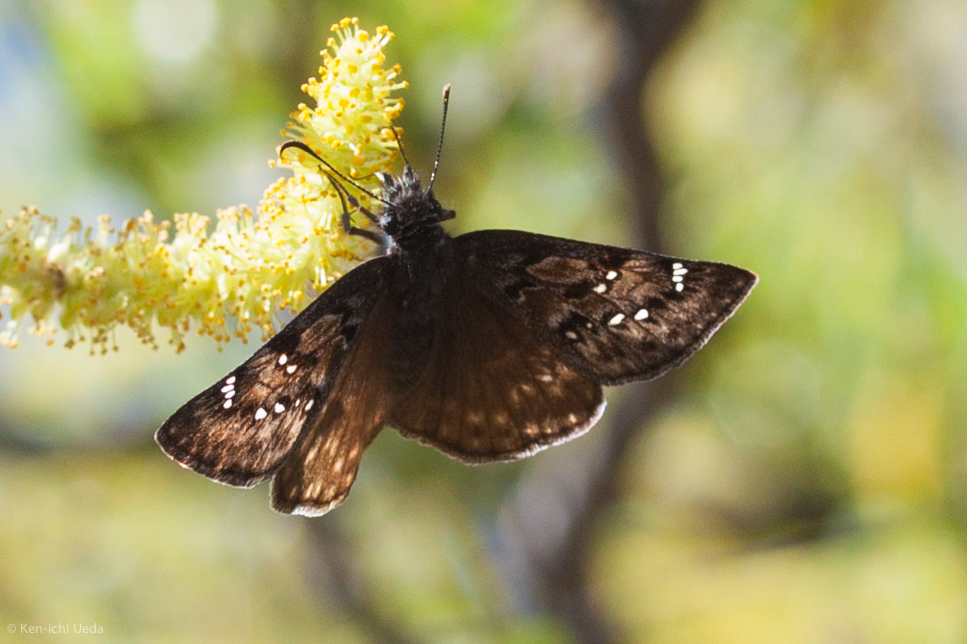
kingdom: Animalia
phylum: Arthropoda
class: Insecta
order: Lepidoptera
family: Hesperiidae
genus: Erynnis
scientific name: Erynnis propertius
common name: Propertius duskywing
